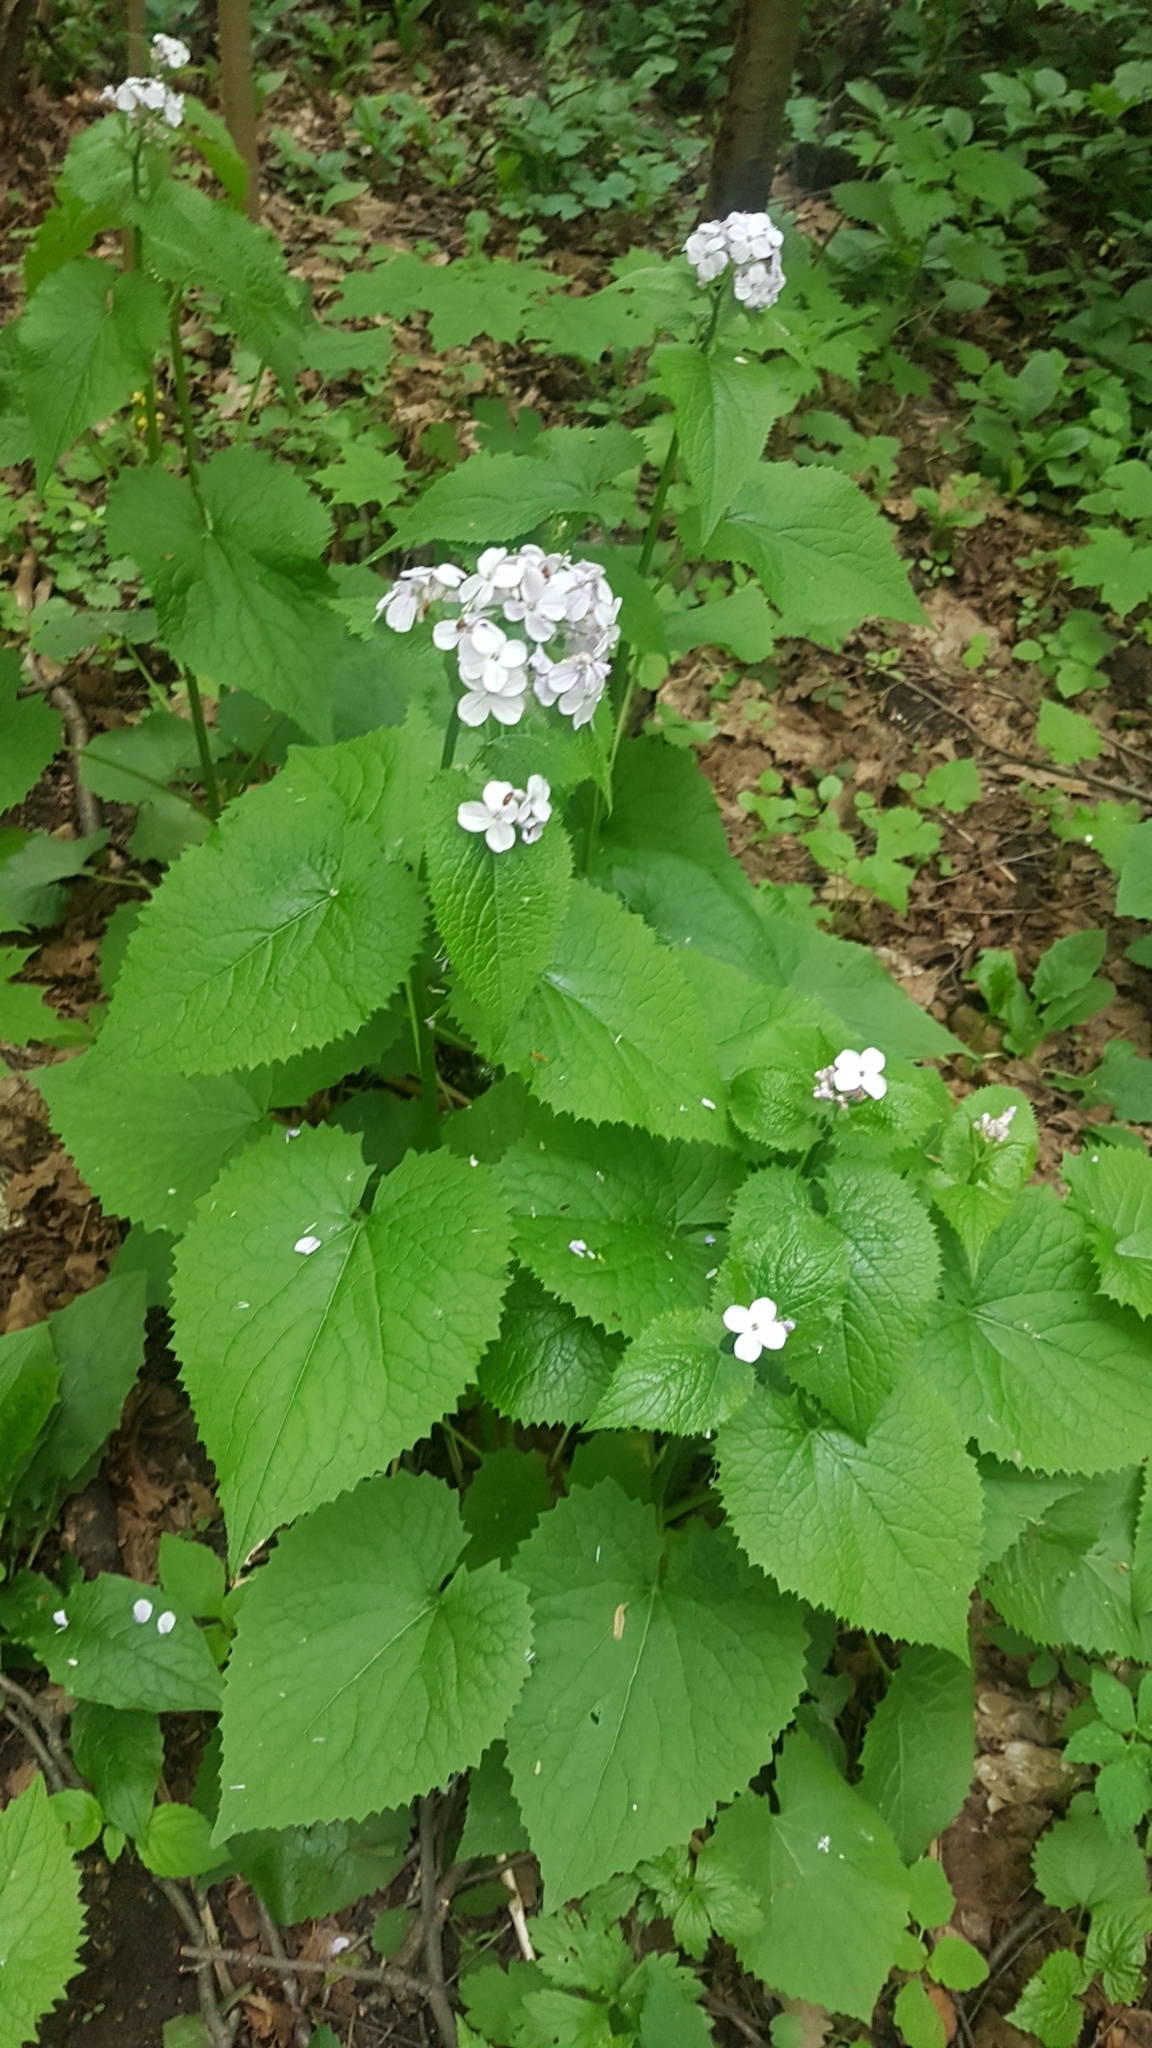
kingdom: Plantae
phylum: Tracheophyta
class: Magnoliopsida
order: Brassicales
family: Brassicaceae
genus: Lunaria
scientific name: Lunaria rediviva
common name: Perennial honesty
